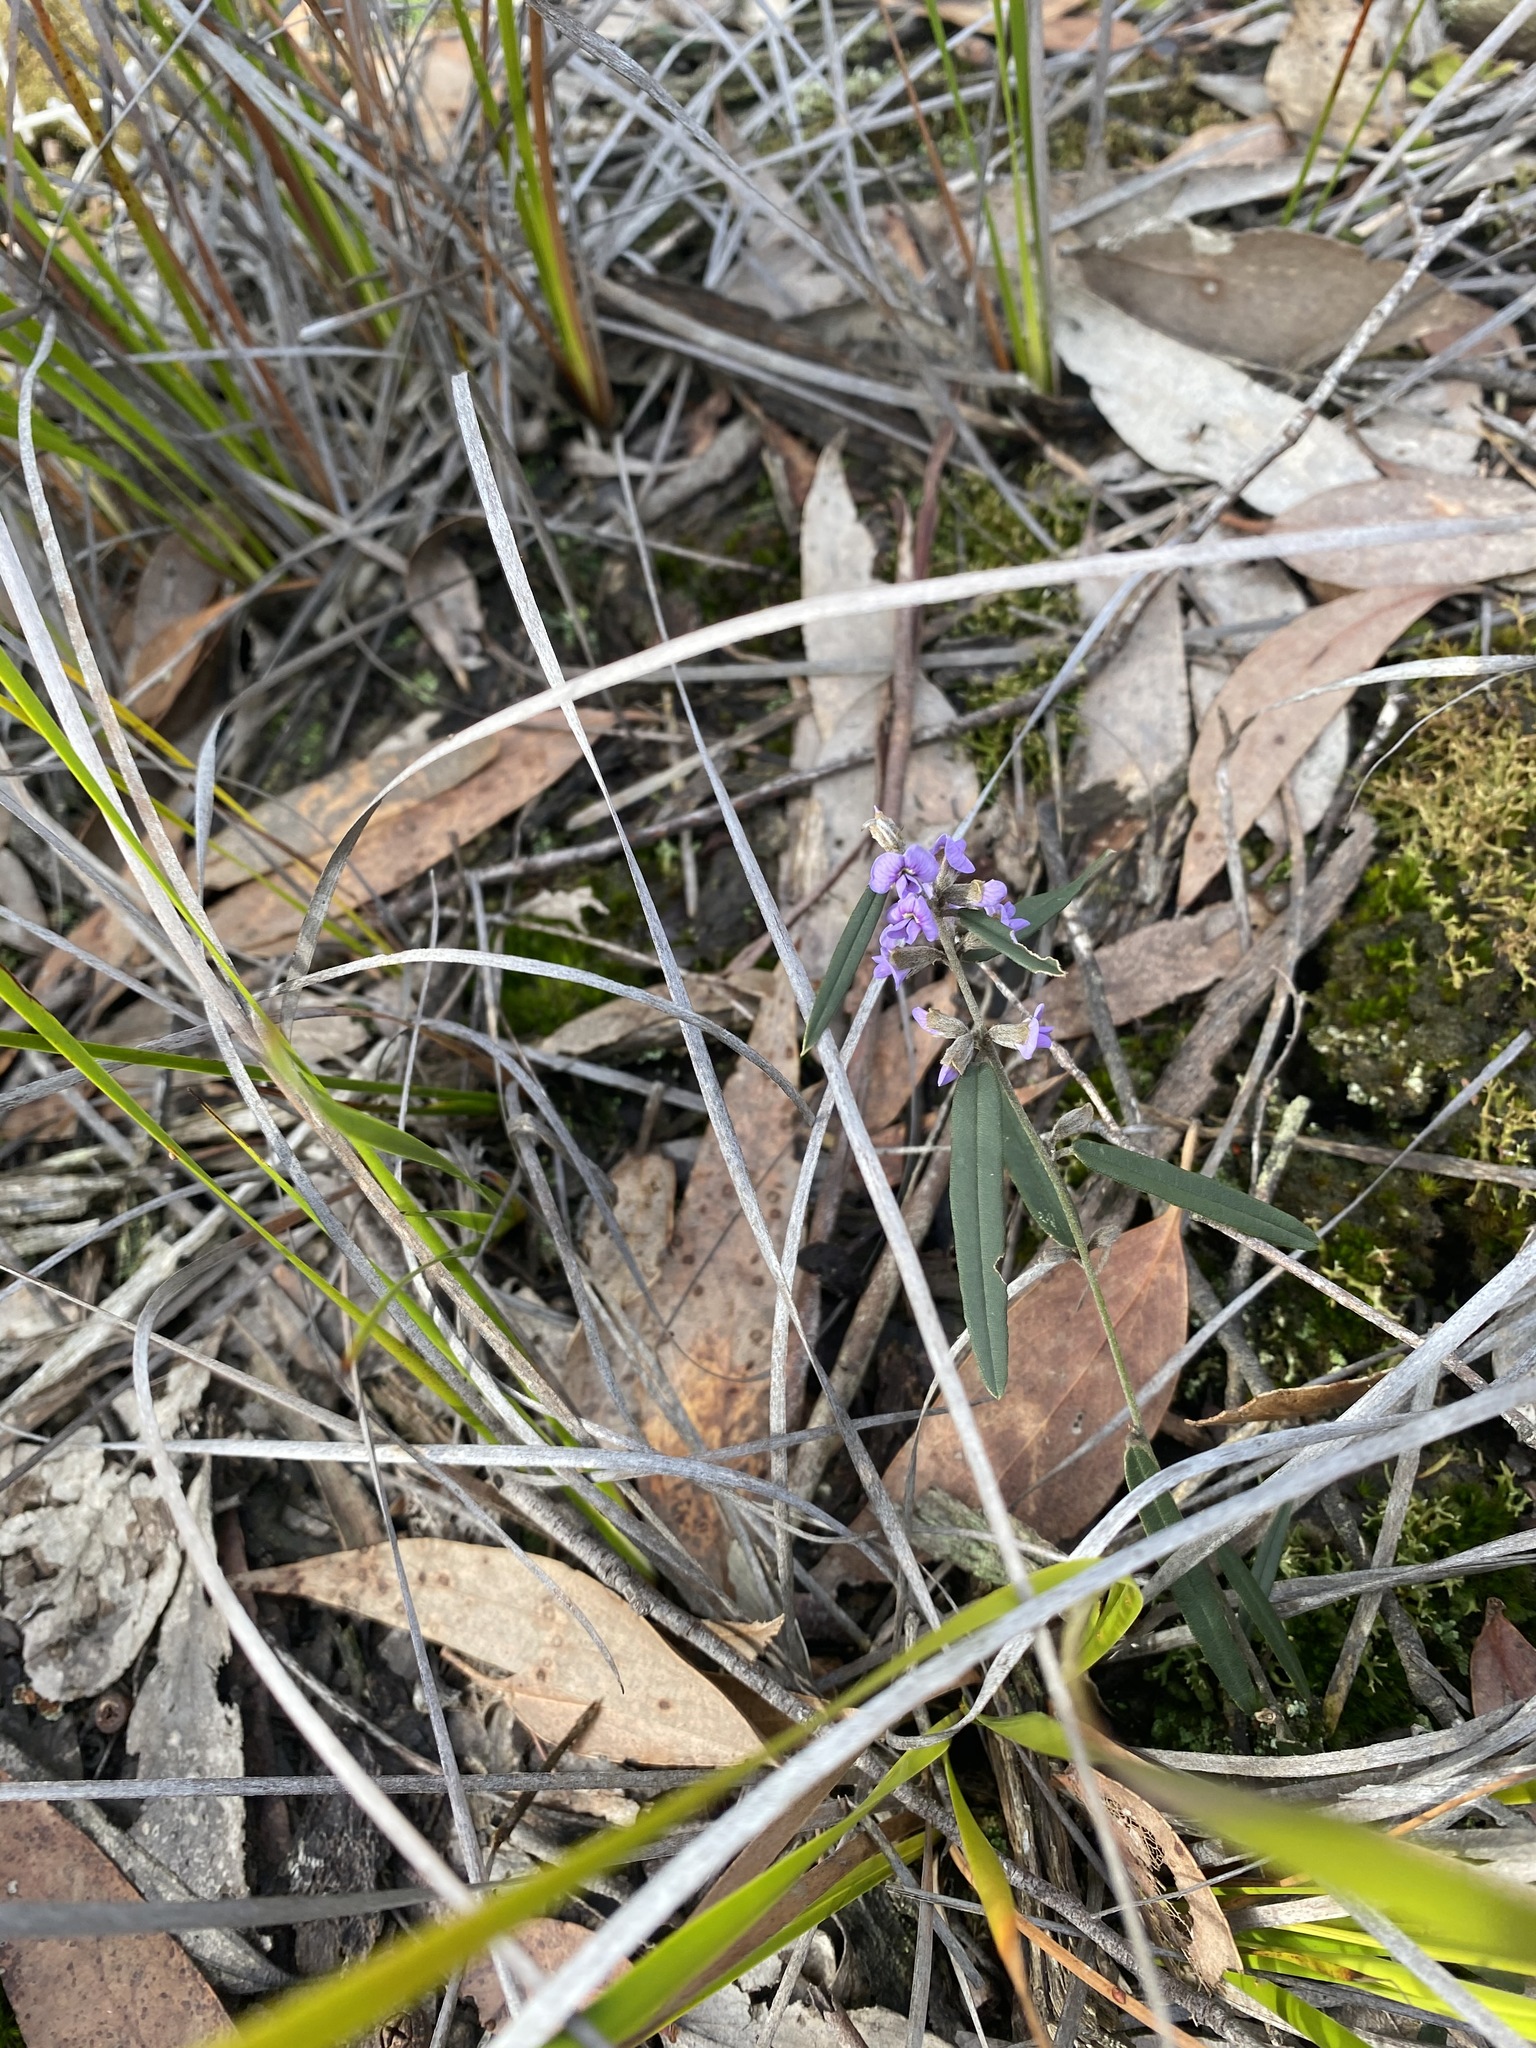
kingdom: Plantae
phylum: Tracheophyta
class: Magnoliopsida
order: Fabales
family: Fabaceae
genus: Hovea
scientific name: Hovea heterophylla
